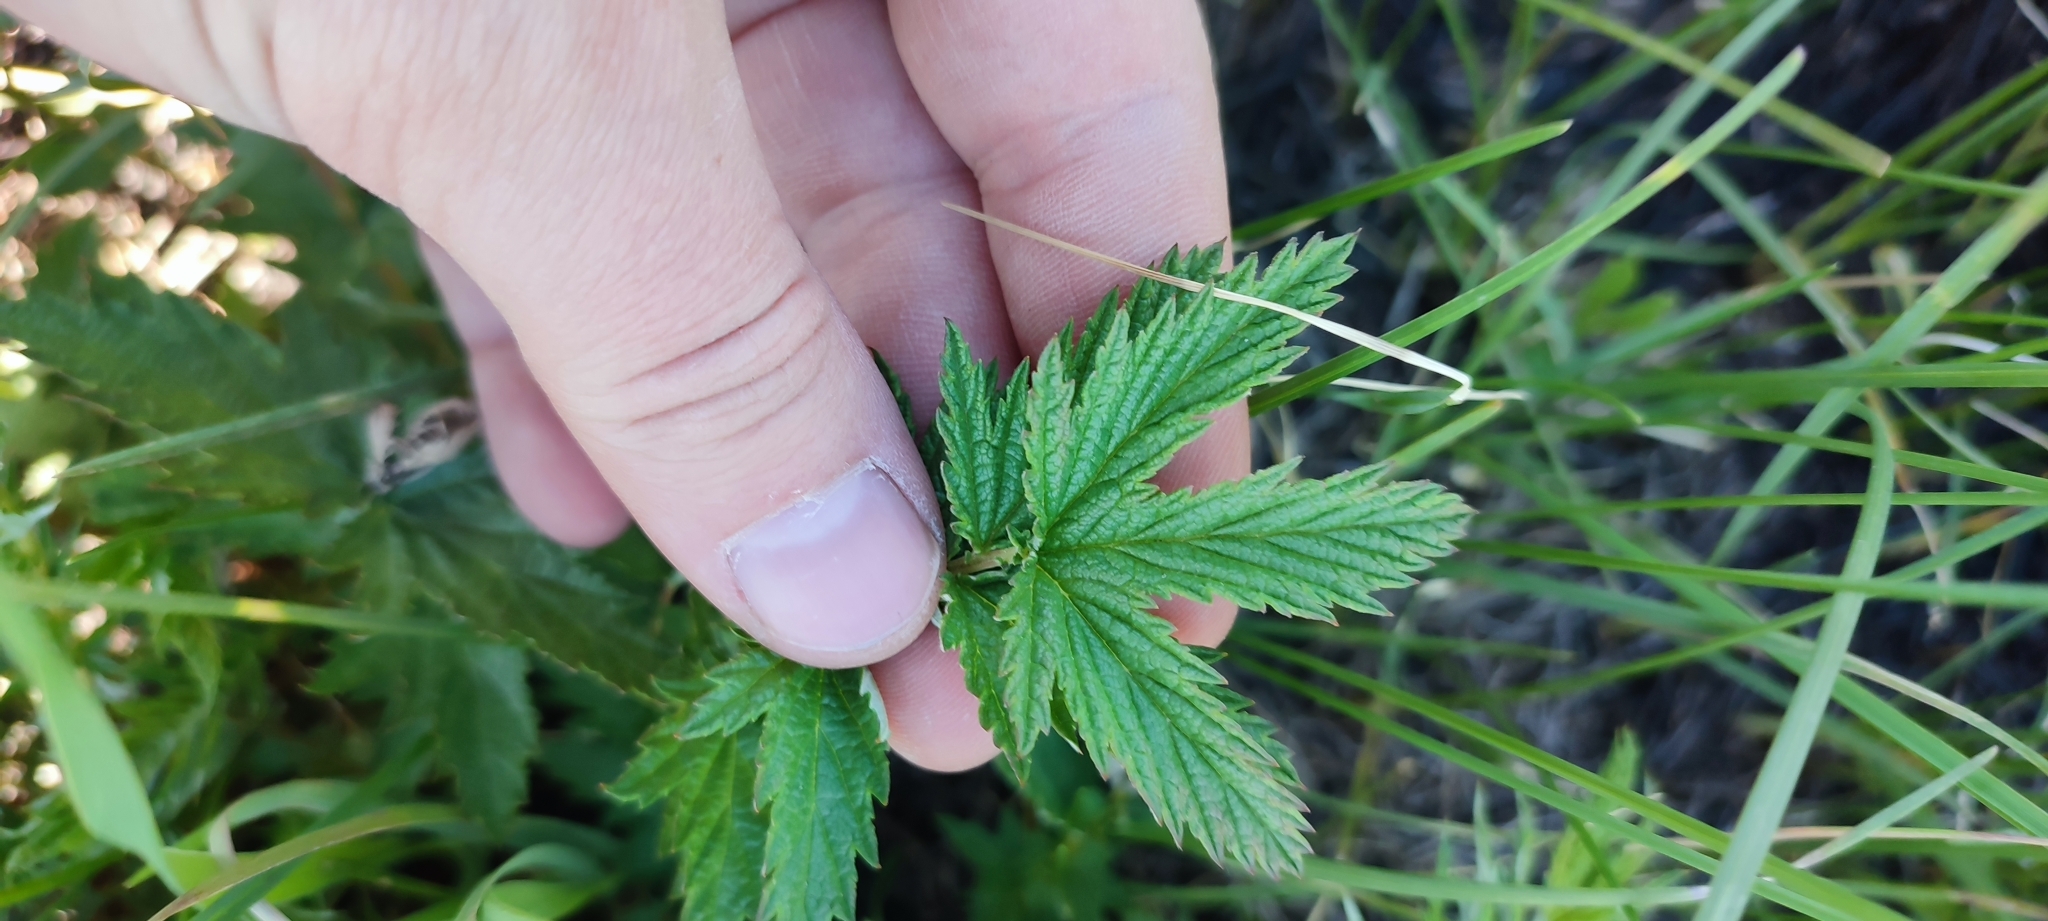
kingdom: Plantae
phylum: Tracheophyta
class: Magnoliopsida
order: Rosales
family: Rosaceae
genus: Filipendula
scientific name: Filipendula ulmaria
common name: Meadowsweet
